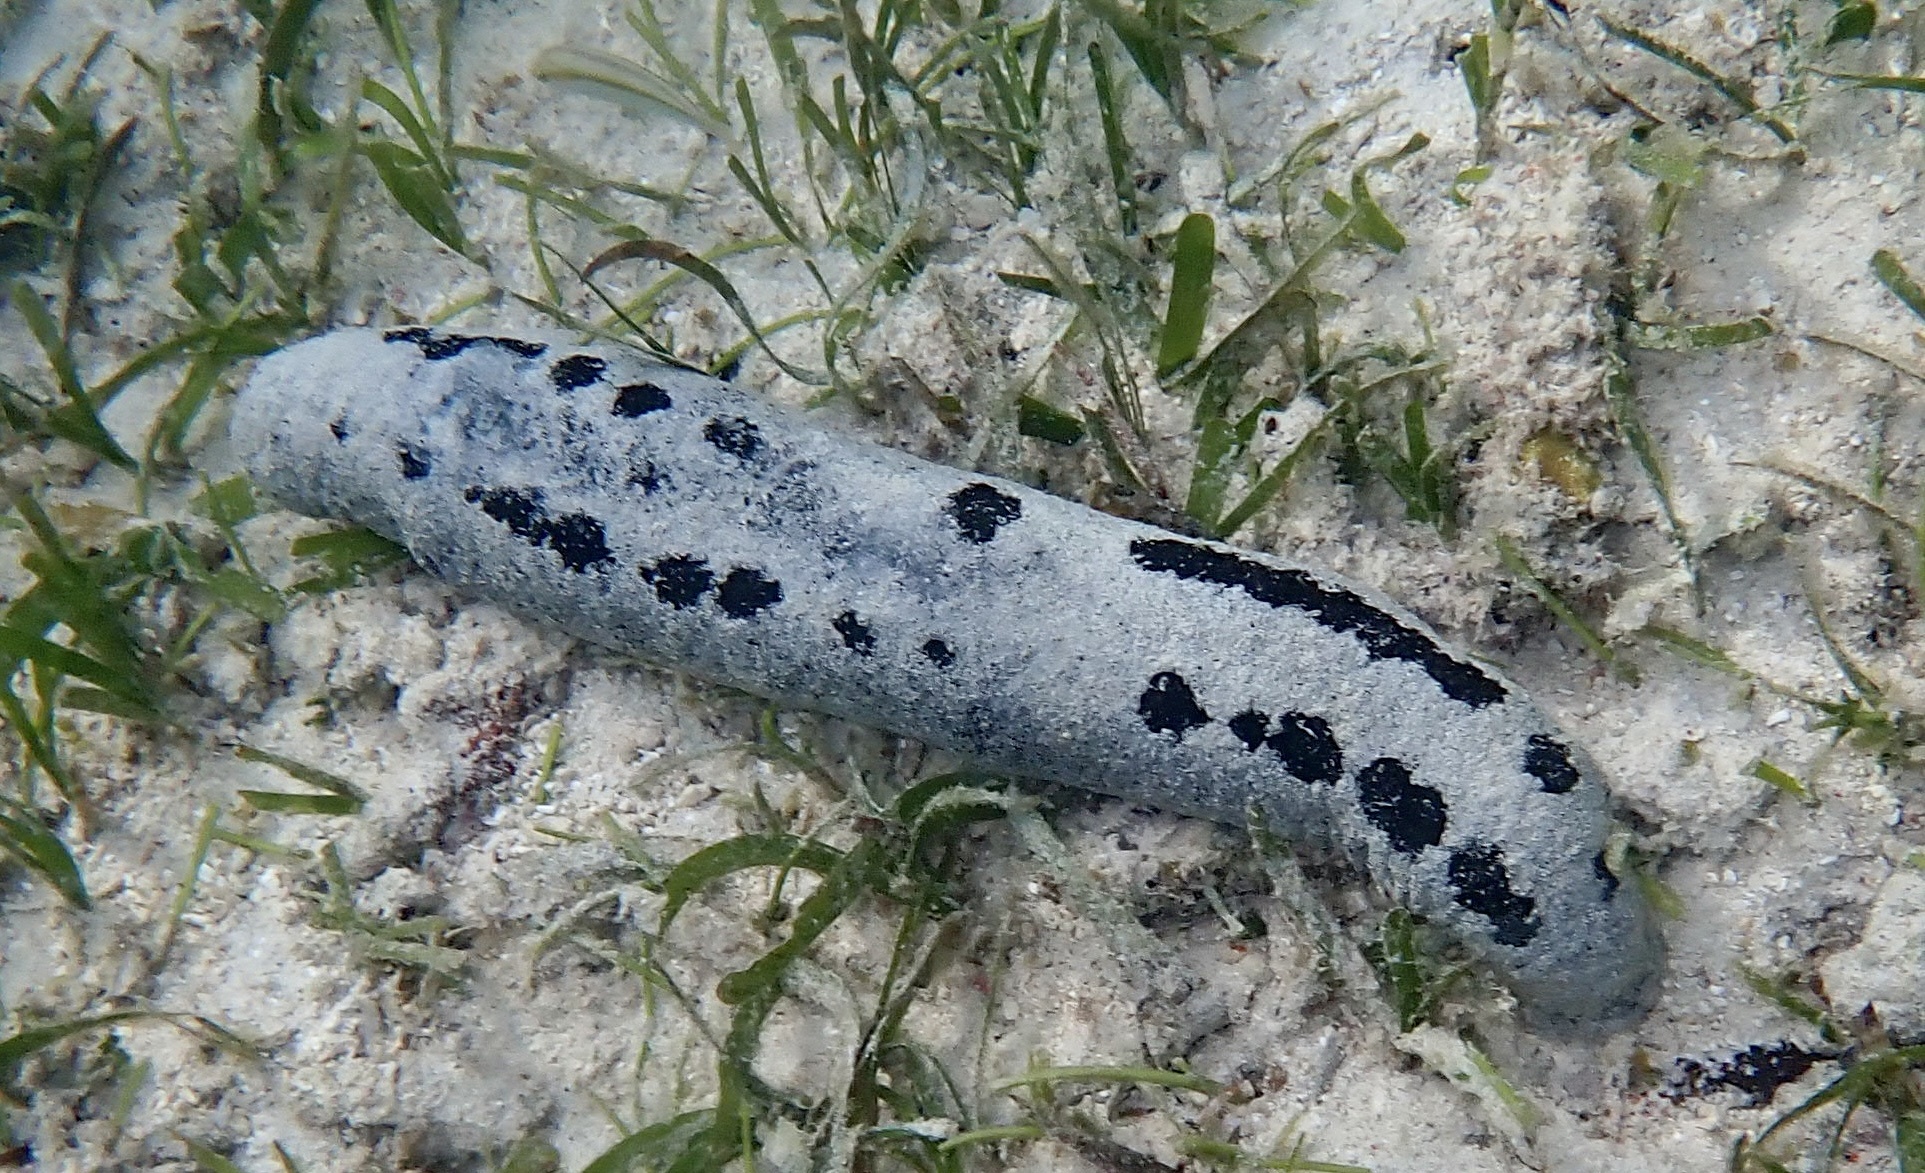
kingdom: Animalia
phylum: Echinodermata
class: Holothuroidea
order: Holothuriida
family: Holothuriidae
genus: Holothuria
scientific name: Holothuria atra
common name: Lollyfish
